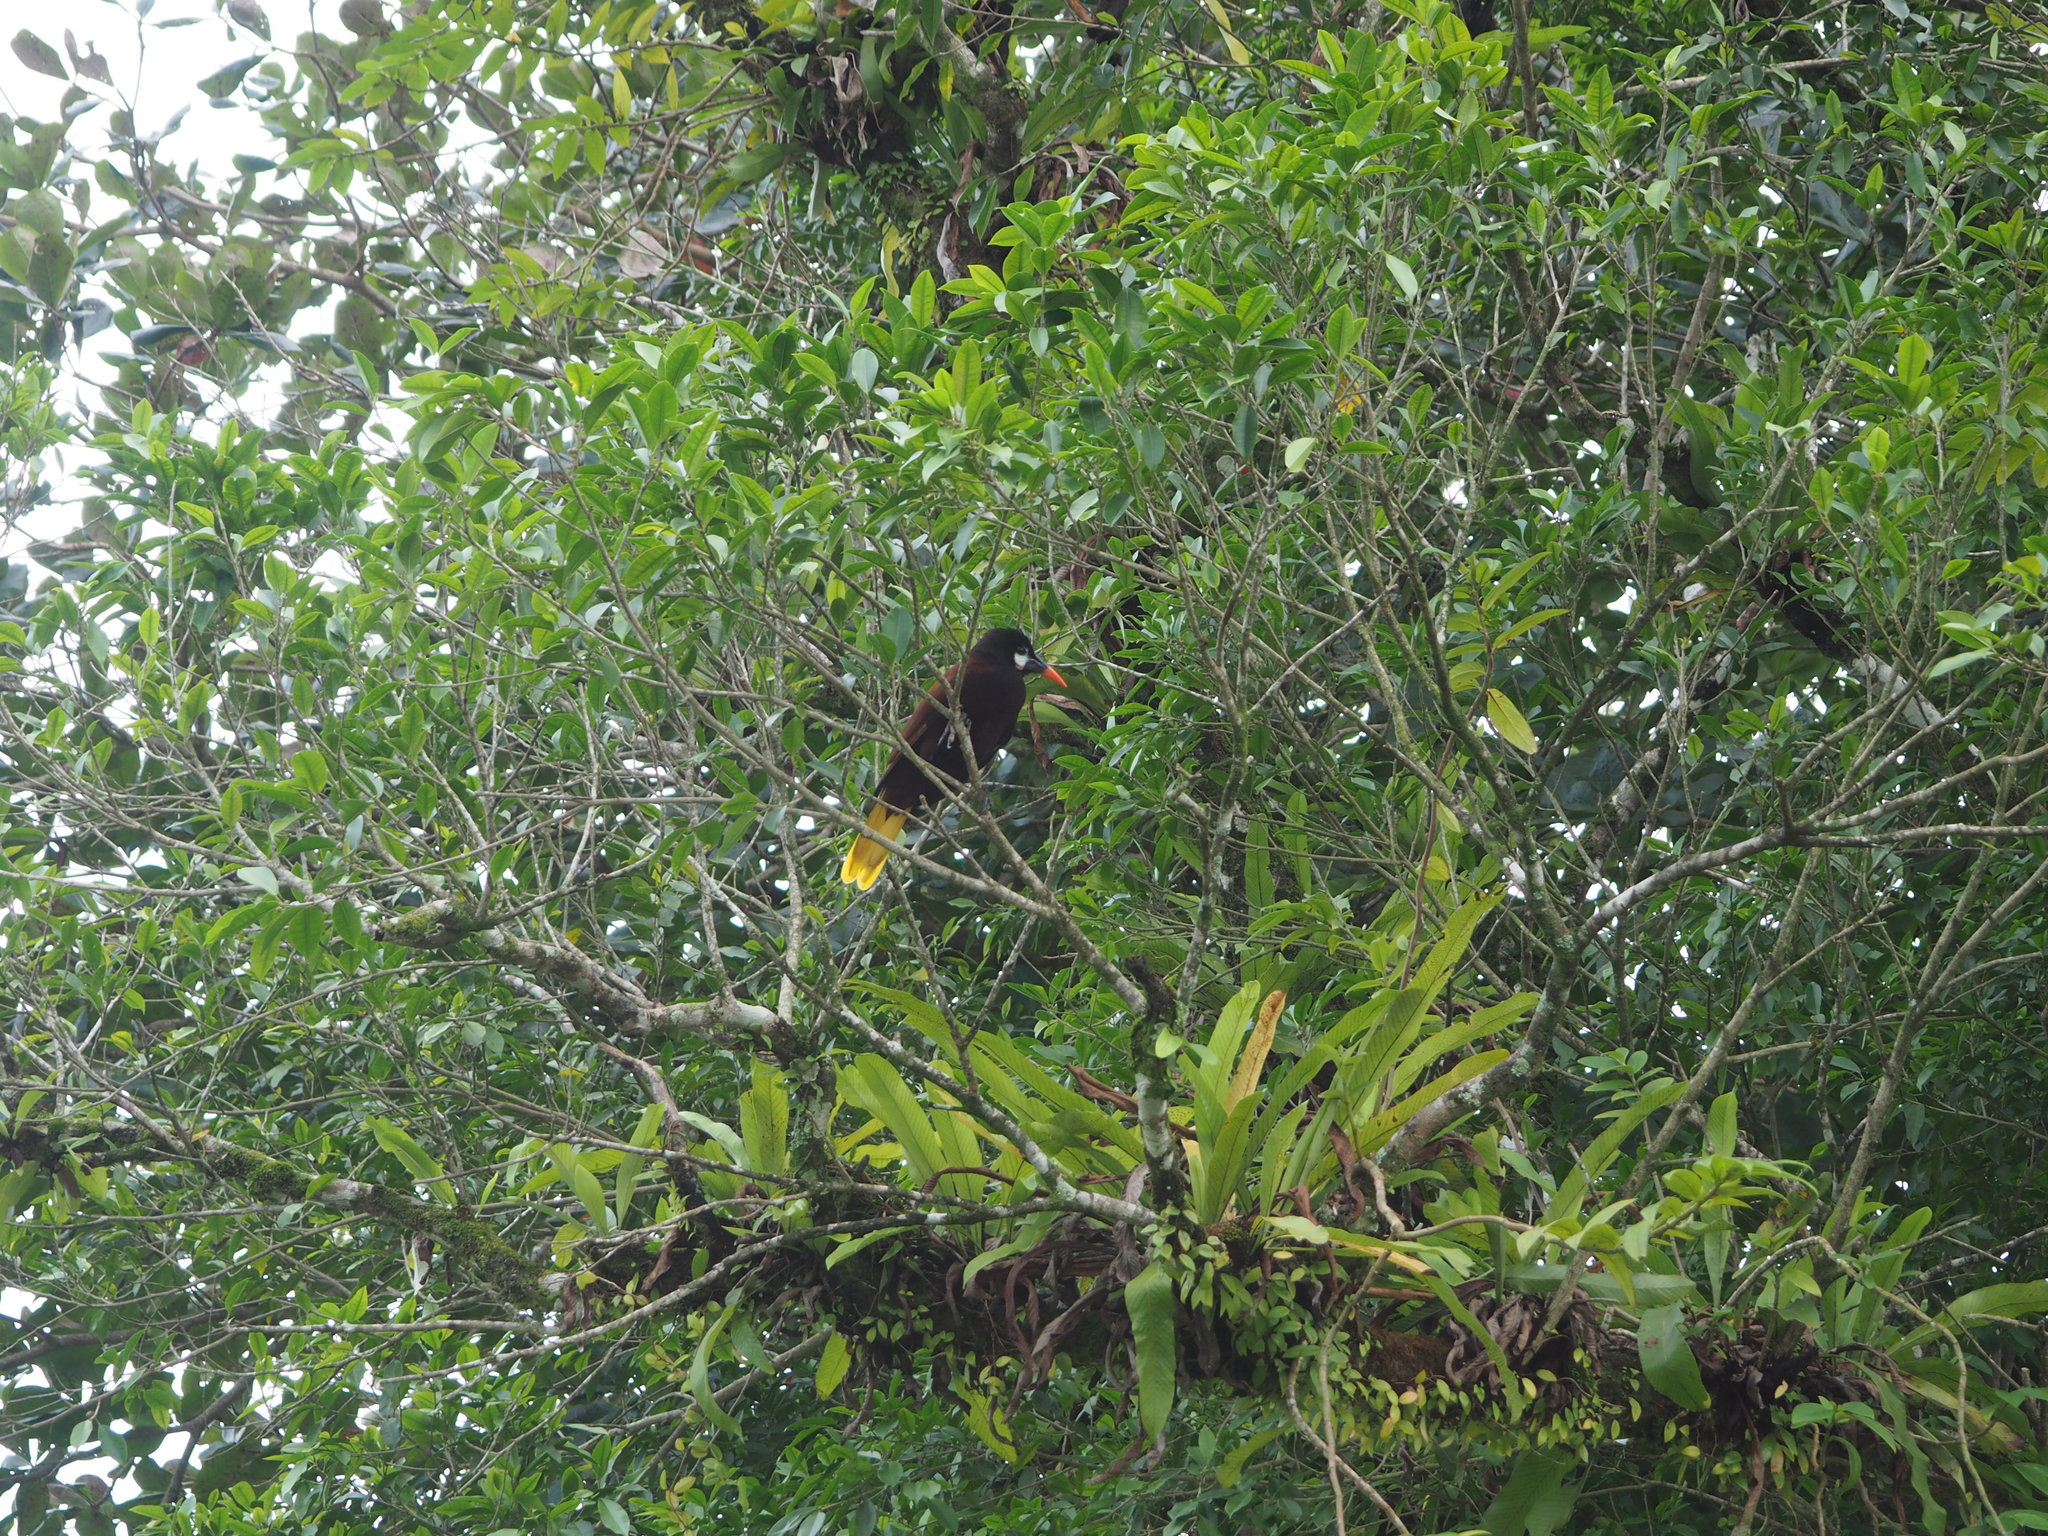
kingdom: Animalia
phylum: Chordata
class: Aves
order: Passeriformes
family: Icteridae
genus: Psarocolius
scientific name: Psarocolius montezuma
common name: Montezuma oropendola
